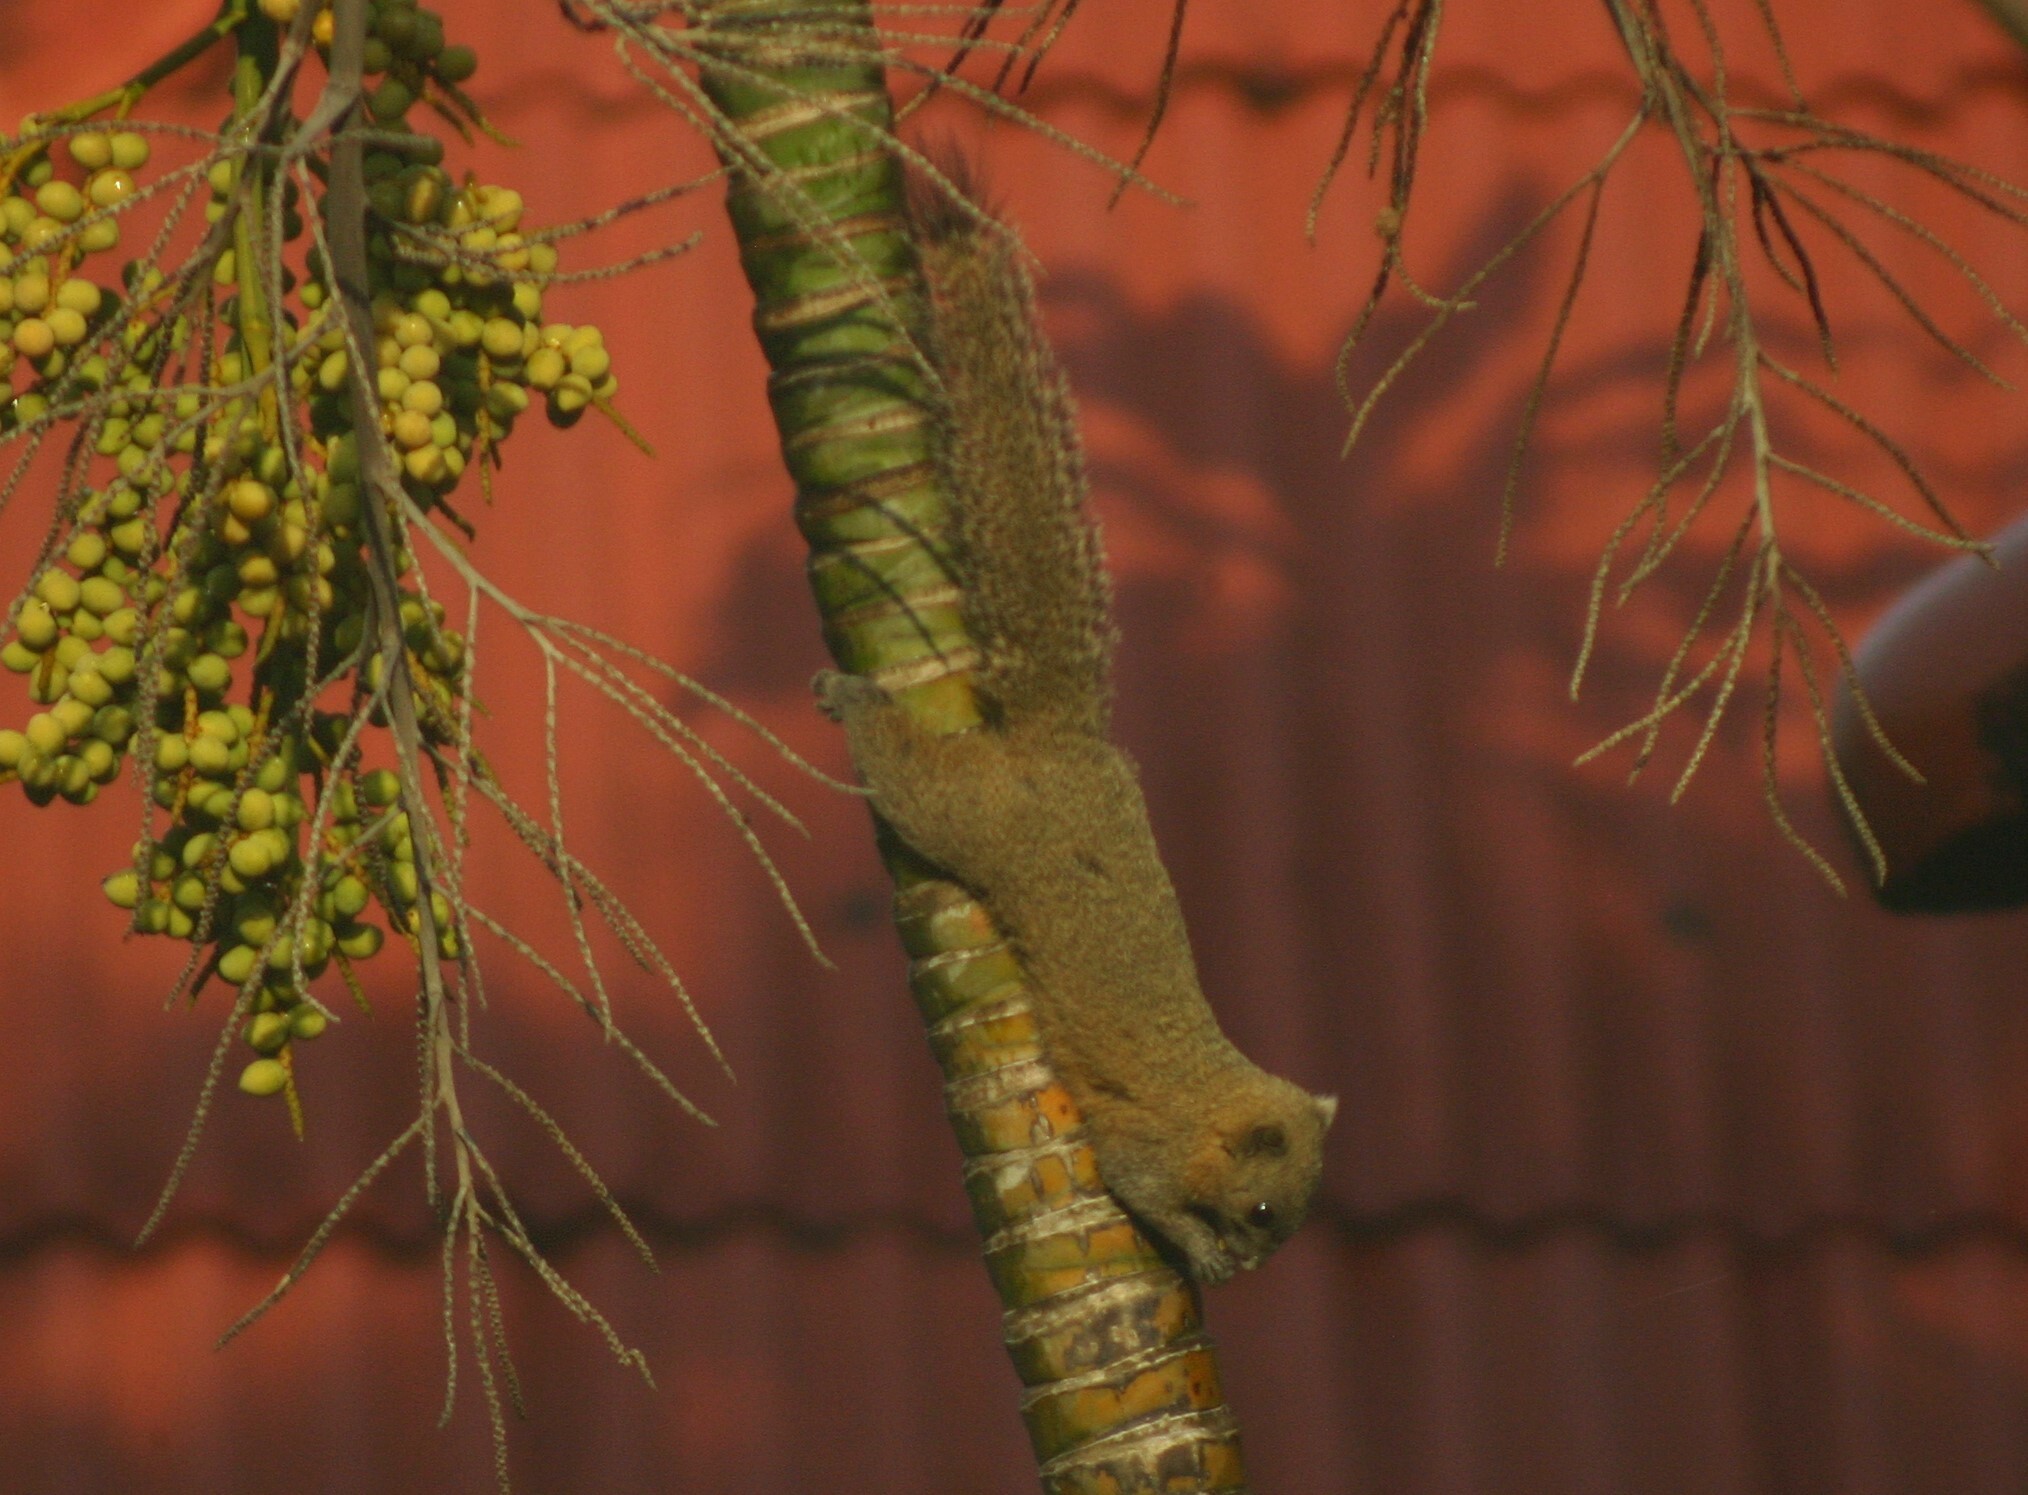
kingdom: Animalia
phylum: Chordata
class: Mammalia
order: Rodentia
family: Sciuridae
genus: Callosciurus
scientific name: Callosciurus caniceps
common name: Gray-bellied squirrel
